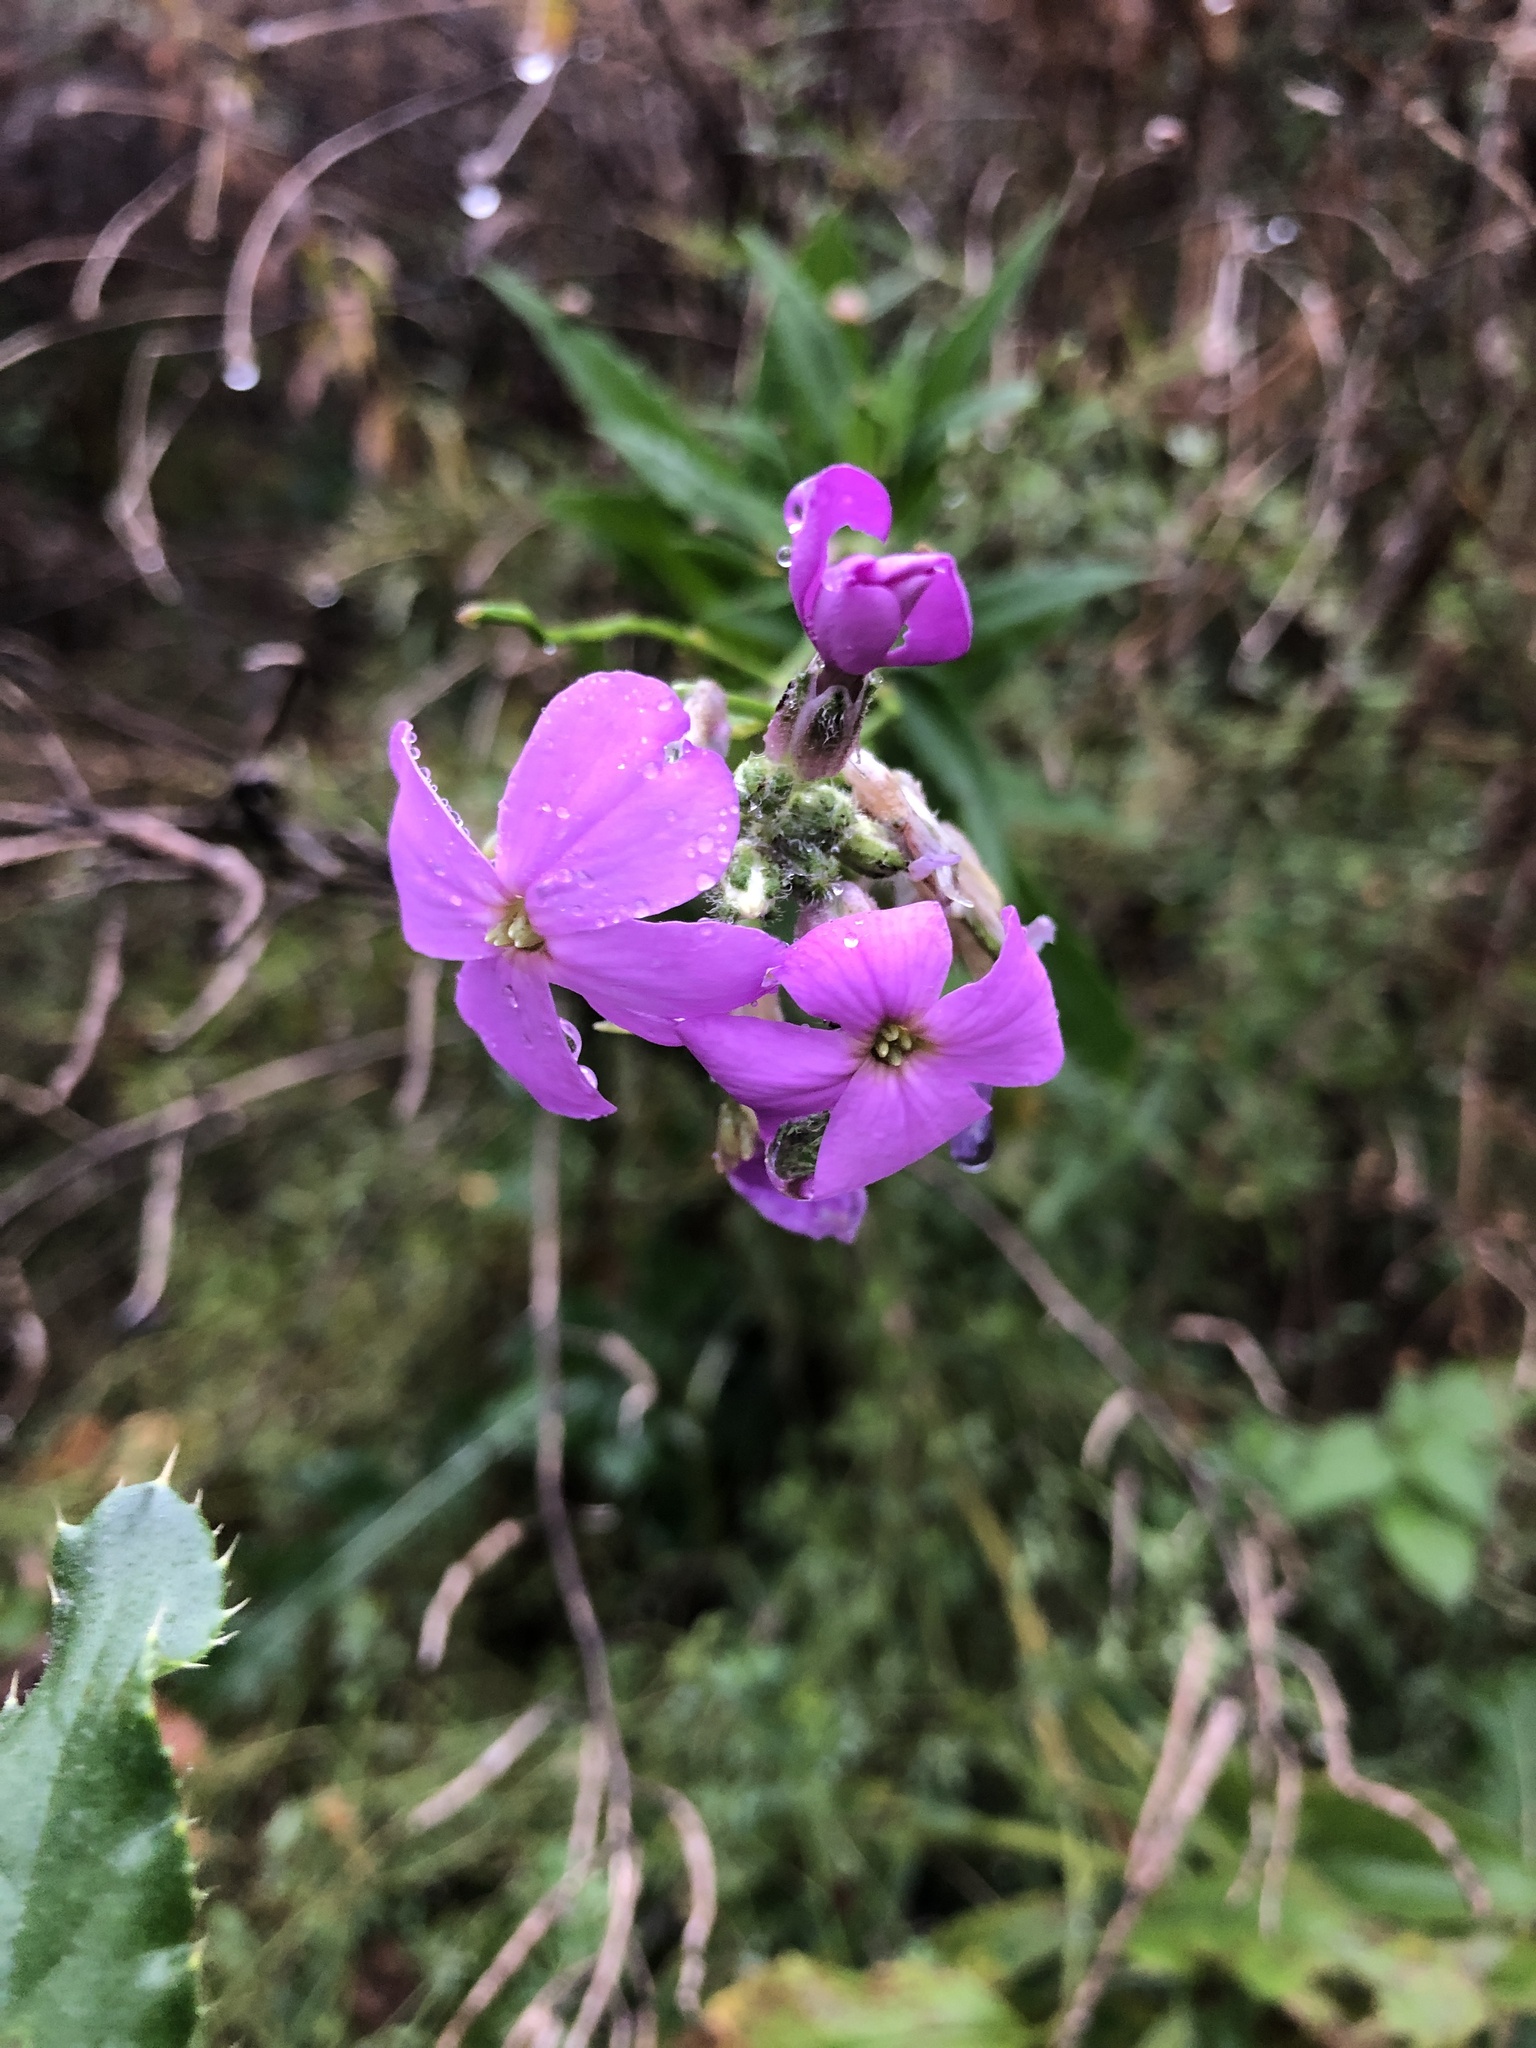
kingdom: Plantae
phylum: Tracheophyta
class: Magnoliopsida
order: Brassicales
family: Brassicaceae
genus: Hesperis
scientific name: Hesperis matronalis
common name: Dame's-violet
